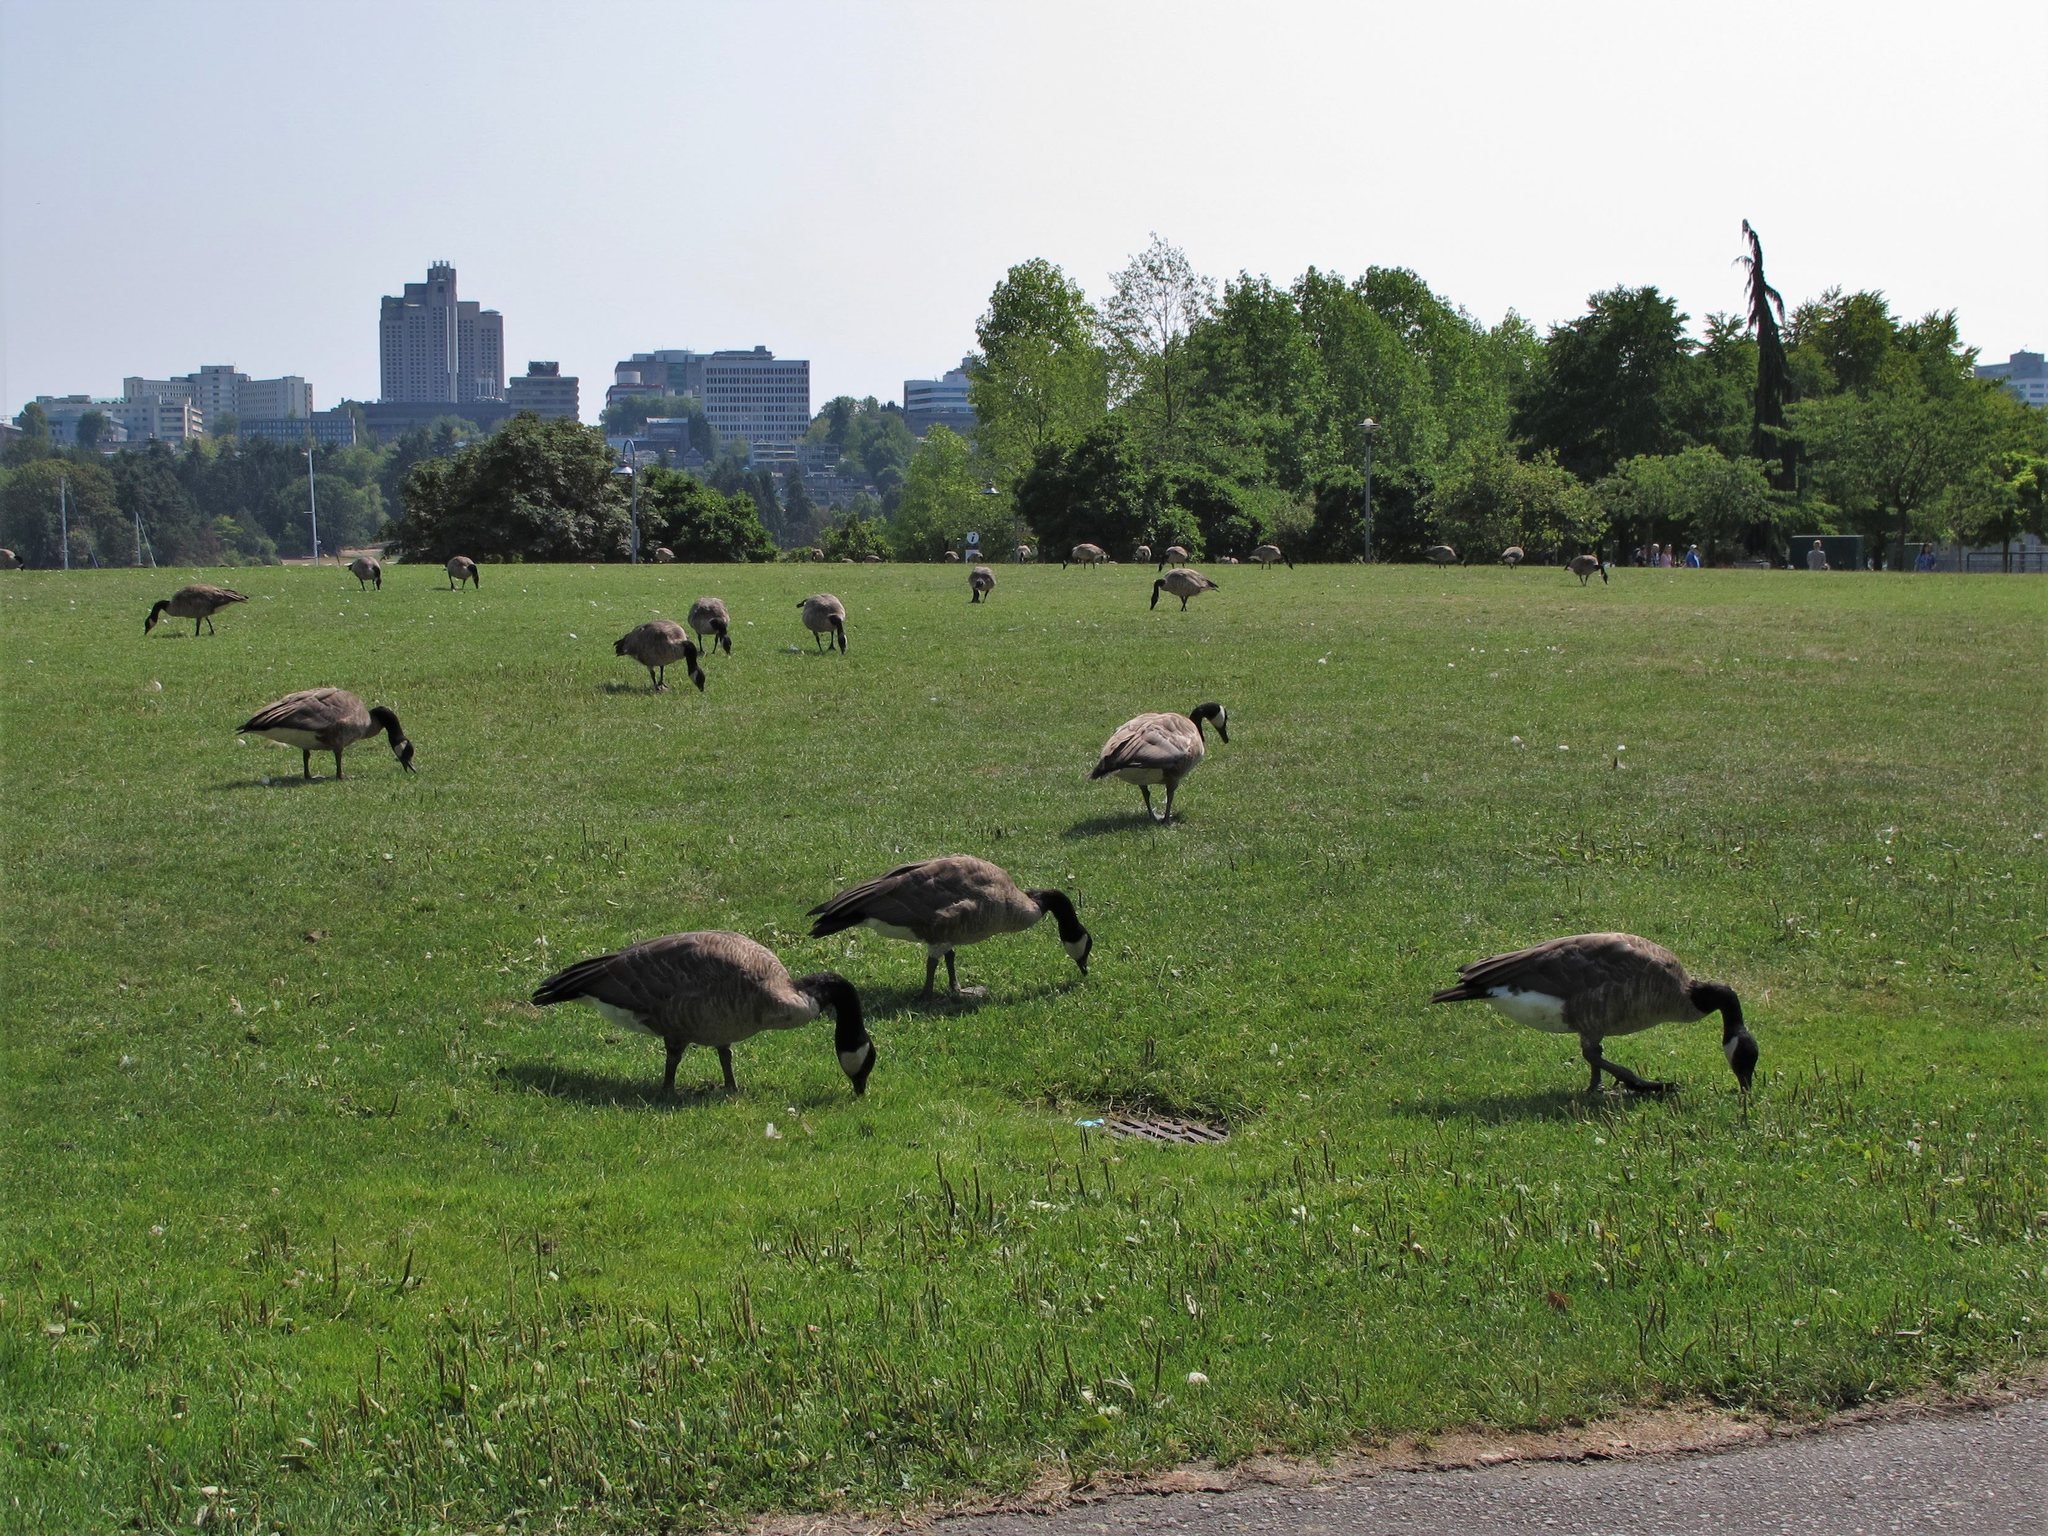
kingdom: Animalia
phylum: Chordata
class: Aves
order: Anseriformes
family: Anatidae
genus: Branta
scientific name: Branta canadensis
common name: Canada goose
